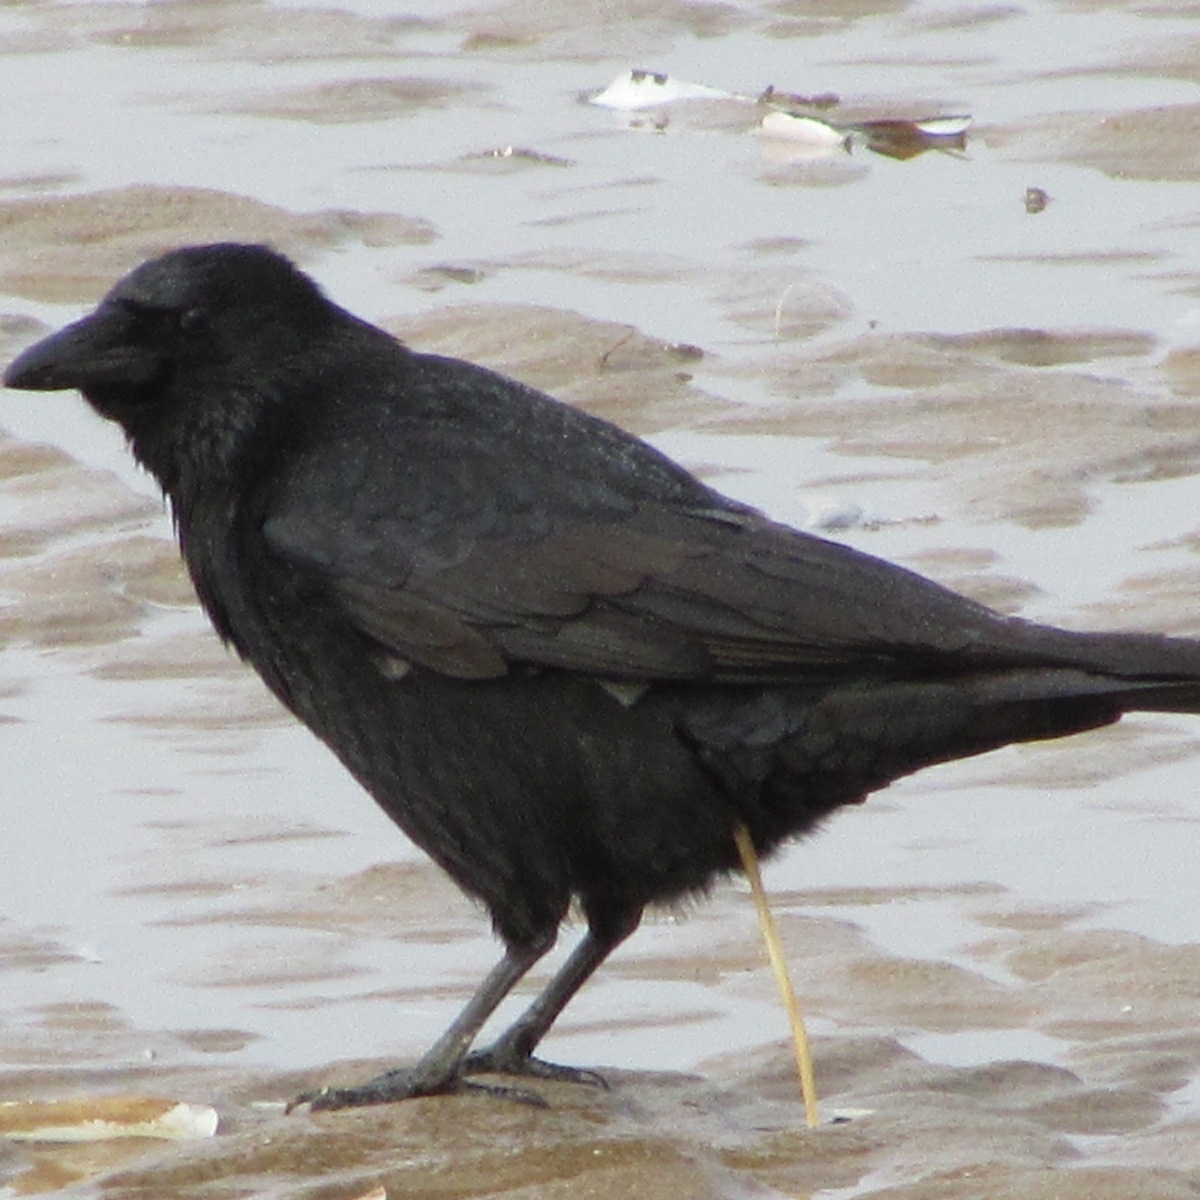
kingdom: Animalia
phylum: Chordata
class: Aves
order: Passeriformes
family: Corvidae
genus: Corvus
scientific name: Corvus corone
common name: Carrion crow
